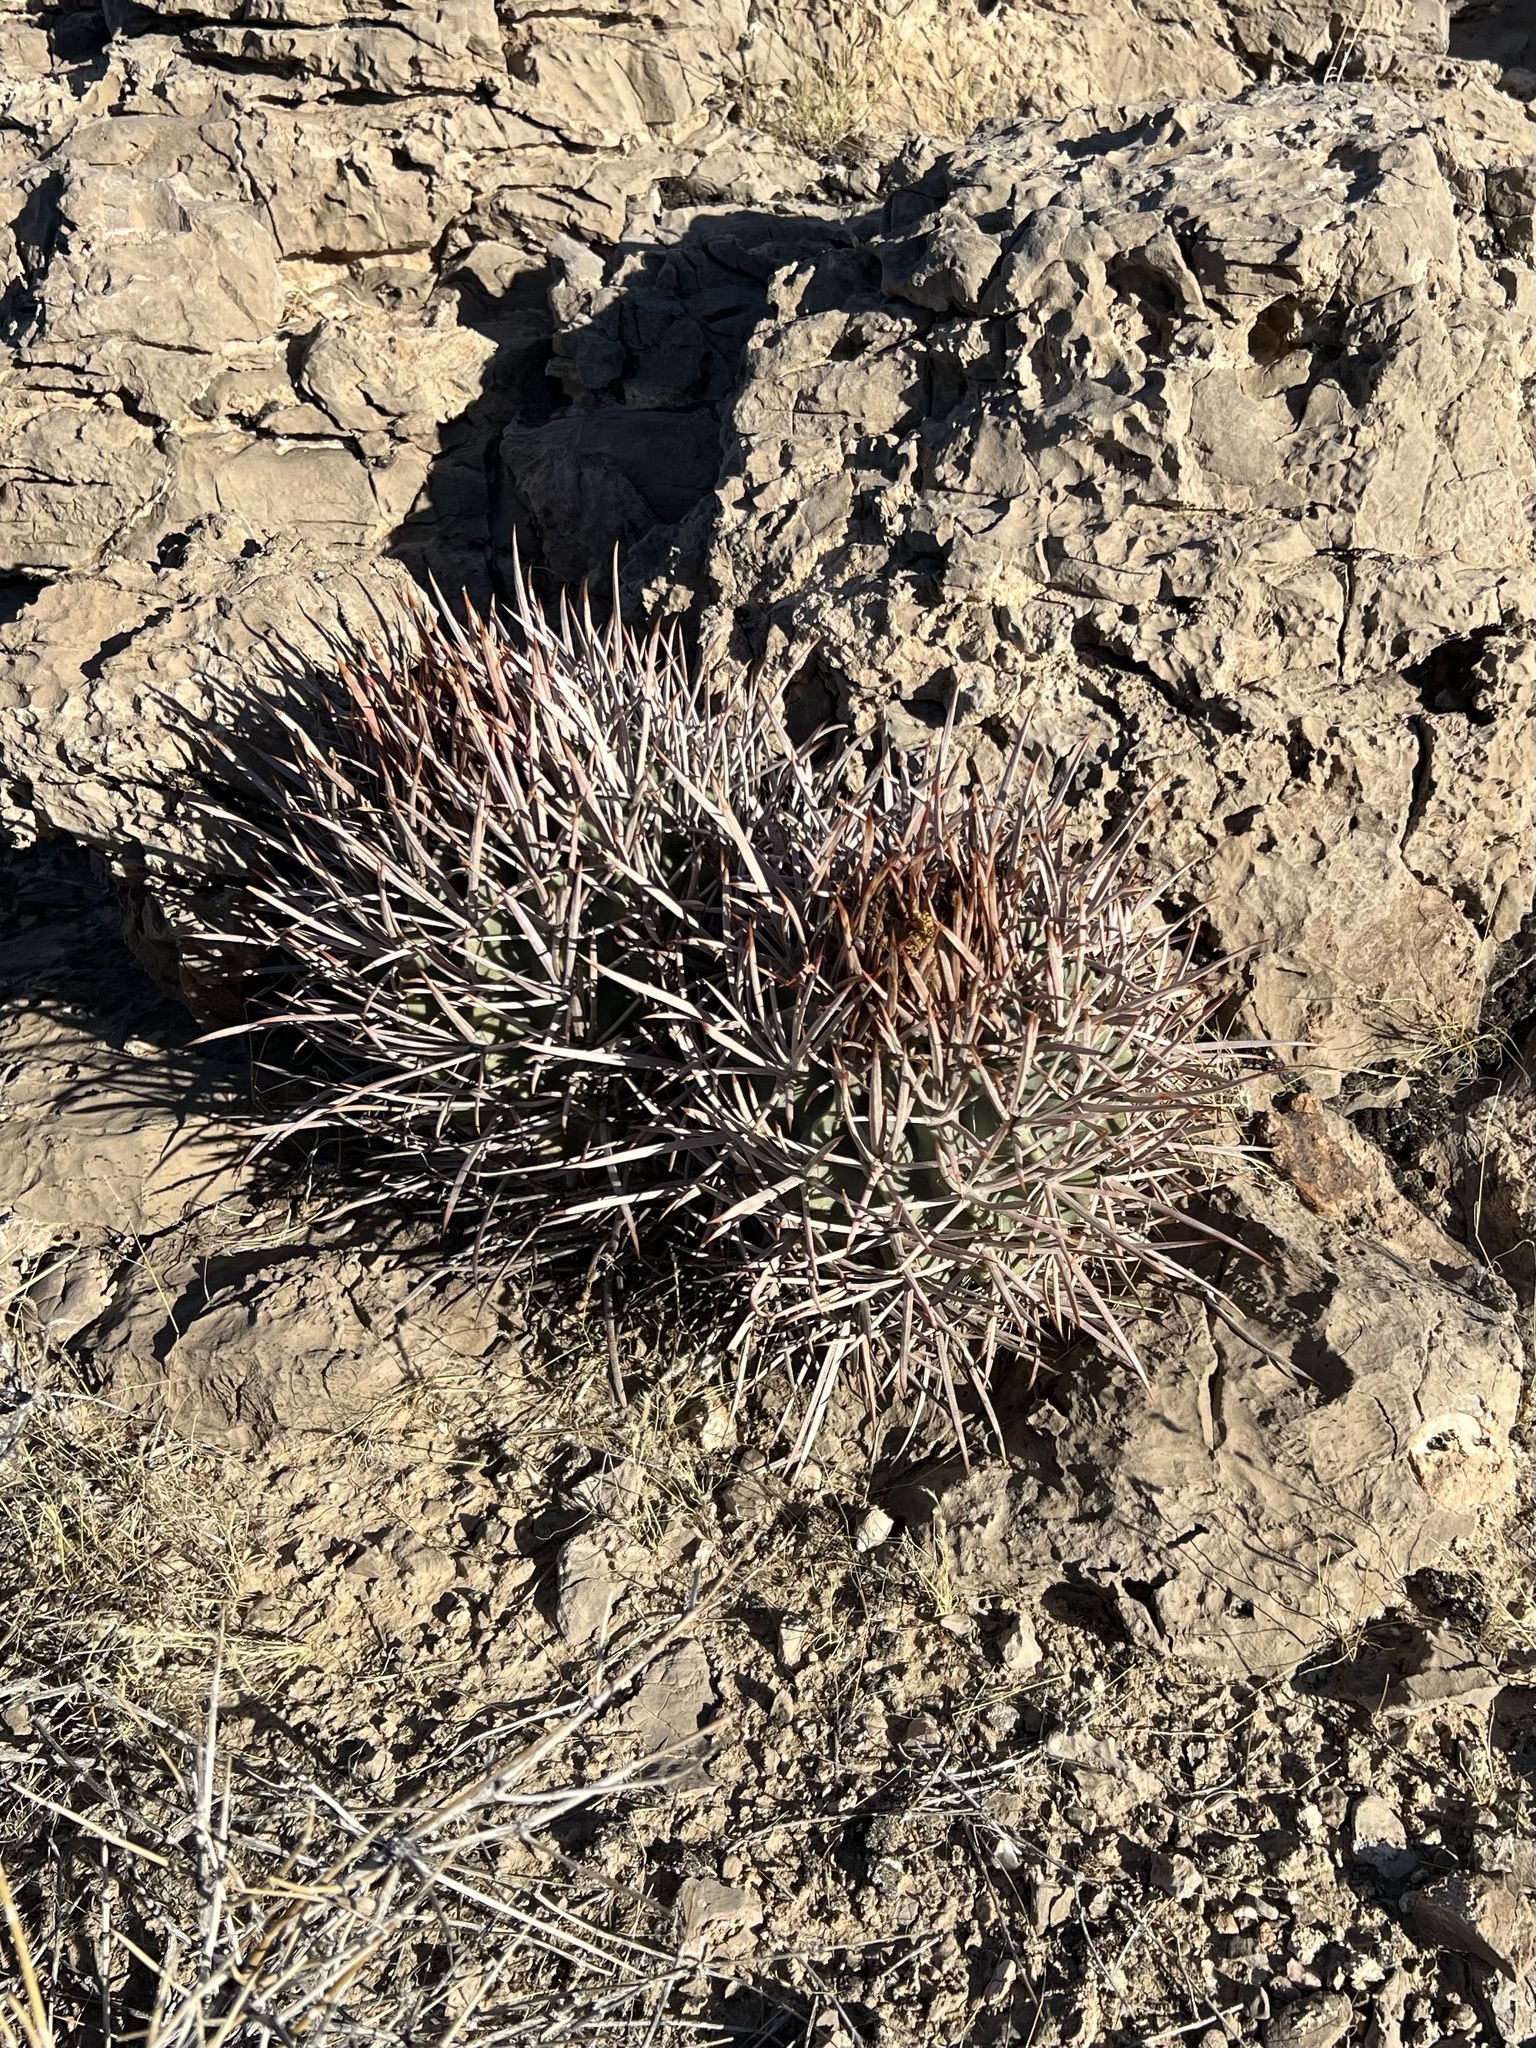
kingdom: Plantae
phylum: Tracheophyta
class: Magnoliopsida
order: Caryophyllales
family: Cactaceae
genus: Echinocactus
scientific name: Echinocactus polycephalus
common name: Cottontop cactus
